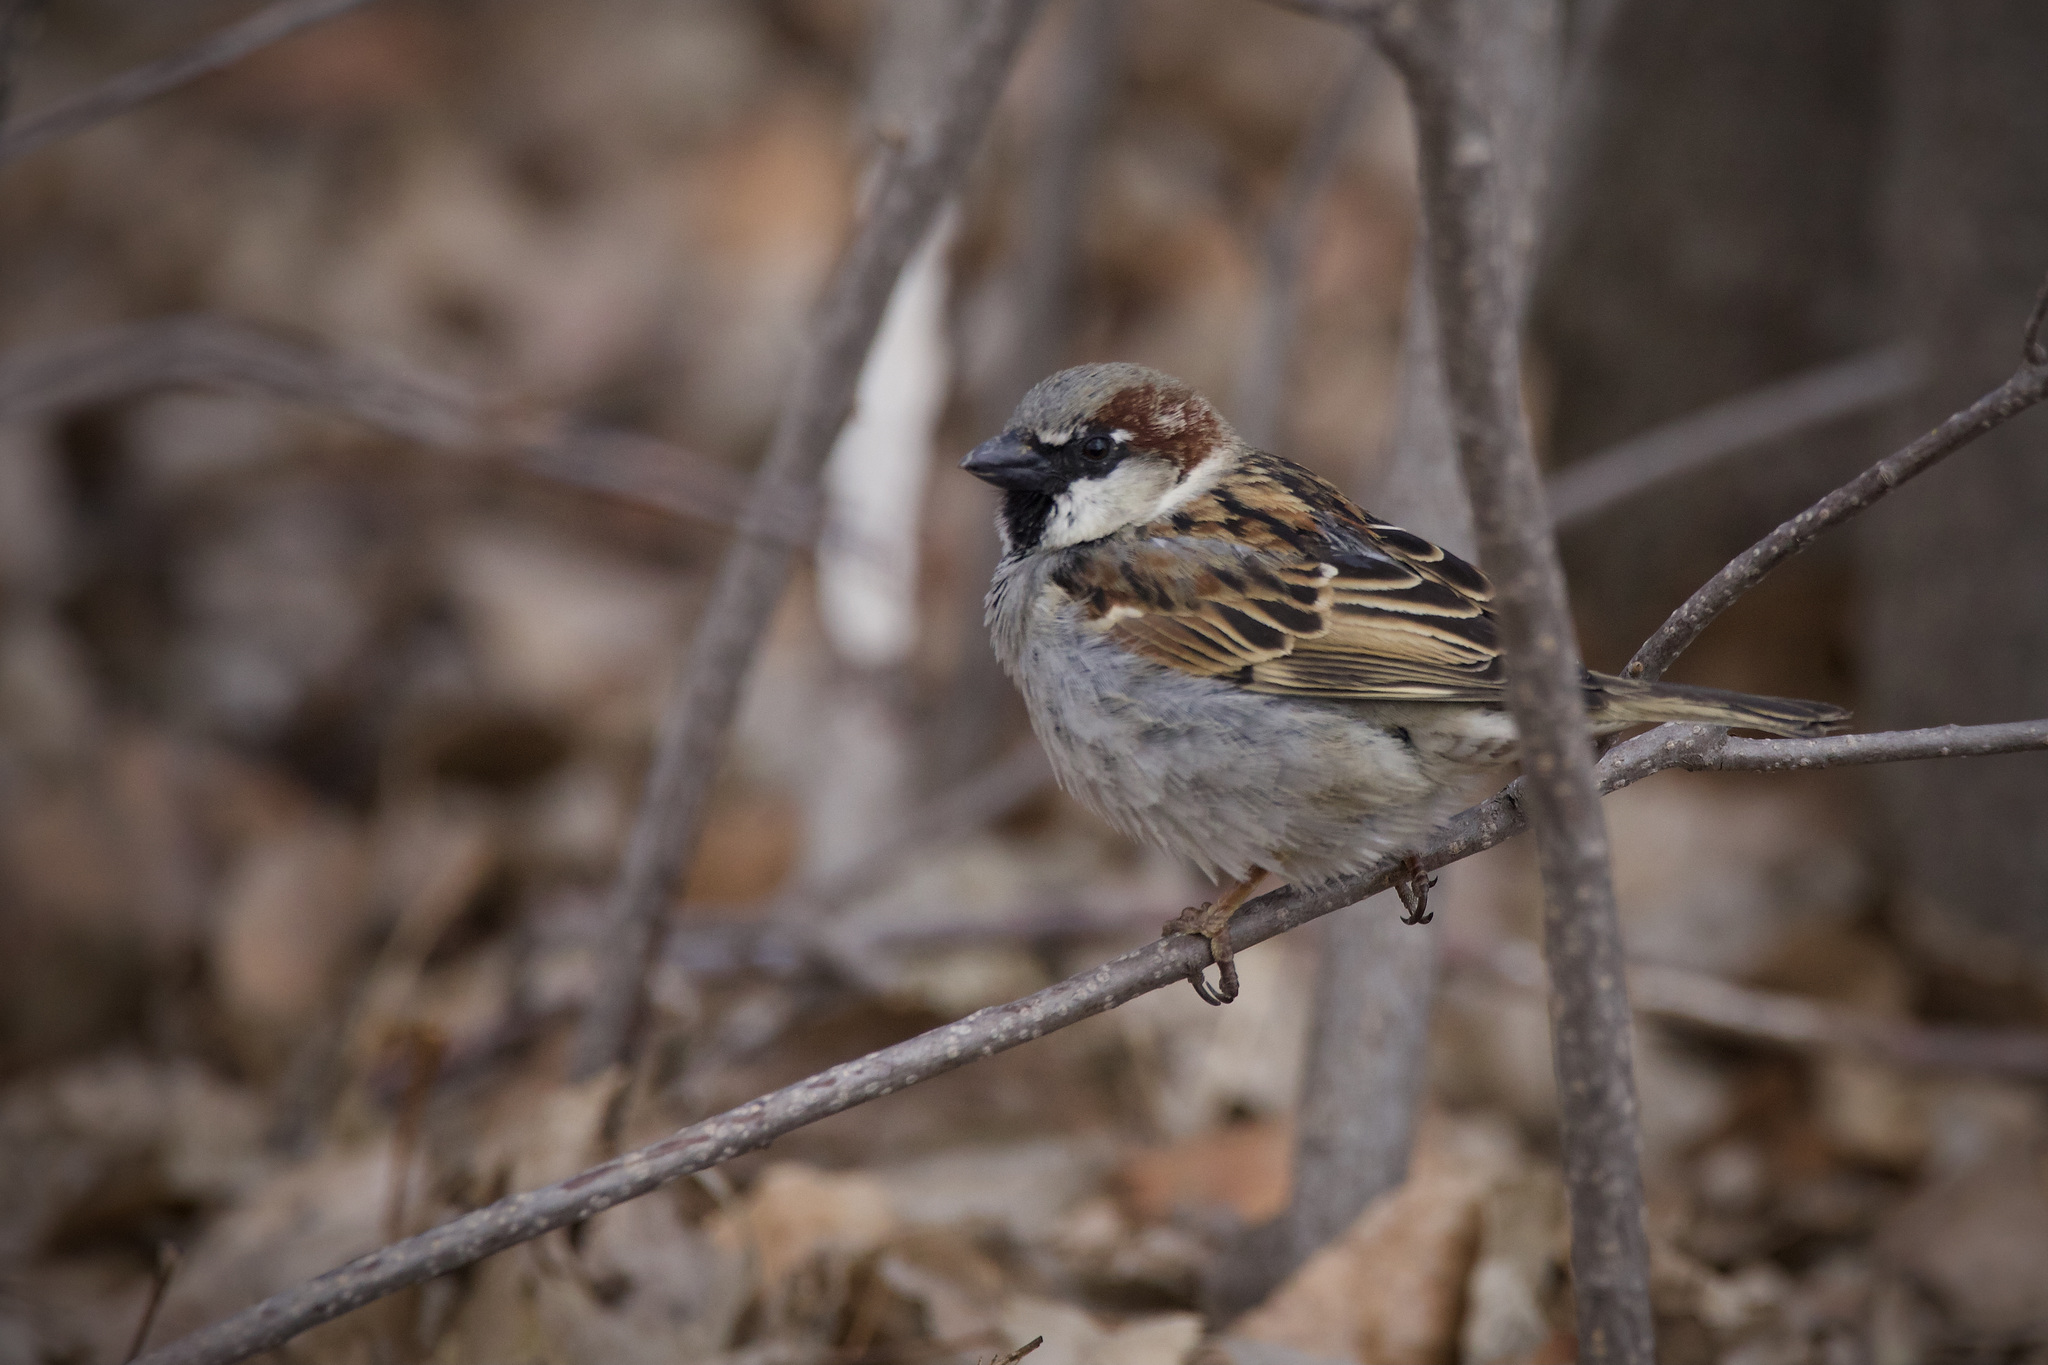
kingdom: Animalia
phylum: Chordata
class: Aves
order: Passeriformes
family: Passeridae
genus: Passer
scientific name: Passer domesticus
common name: House sparrow
